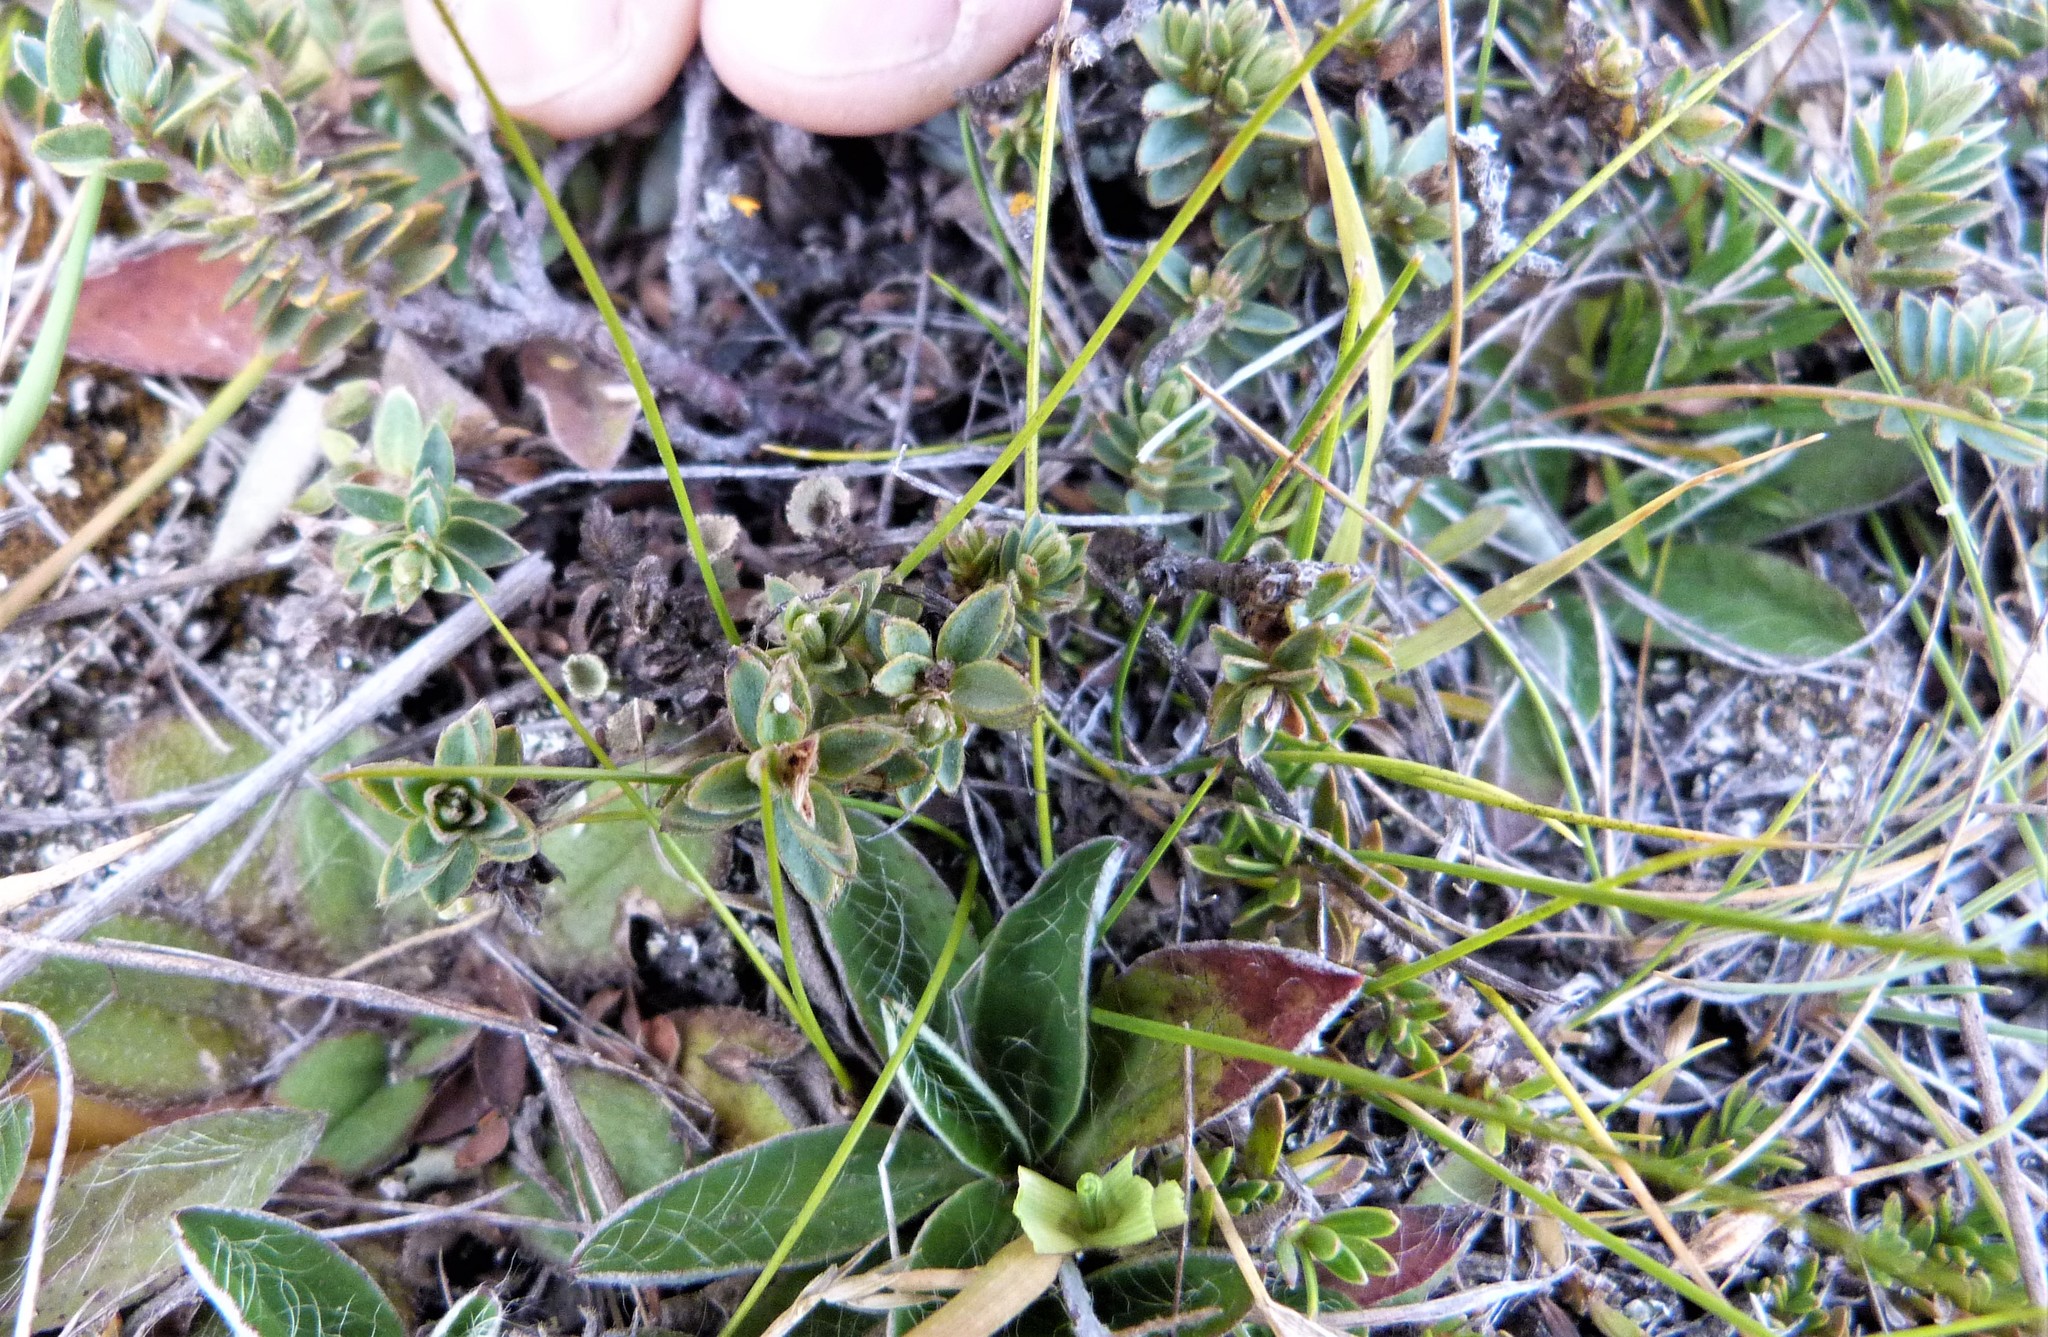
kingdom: Plantae
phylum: Tracheophyta
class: Magnoliopsida
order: Malvales
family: Thymelaeaceae
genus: Pimelea
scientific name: Pimelea oreophila
